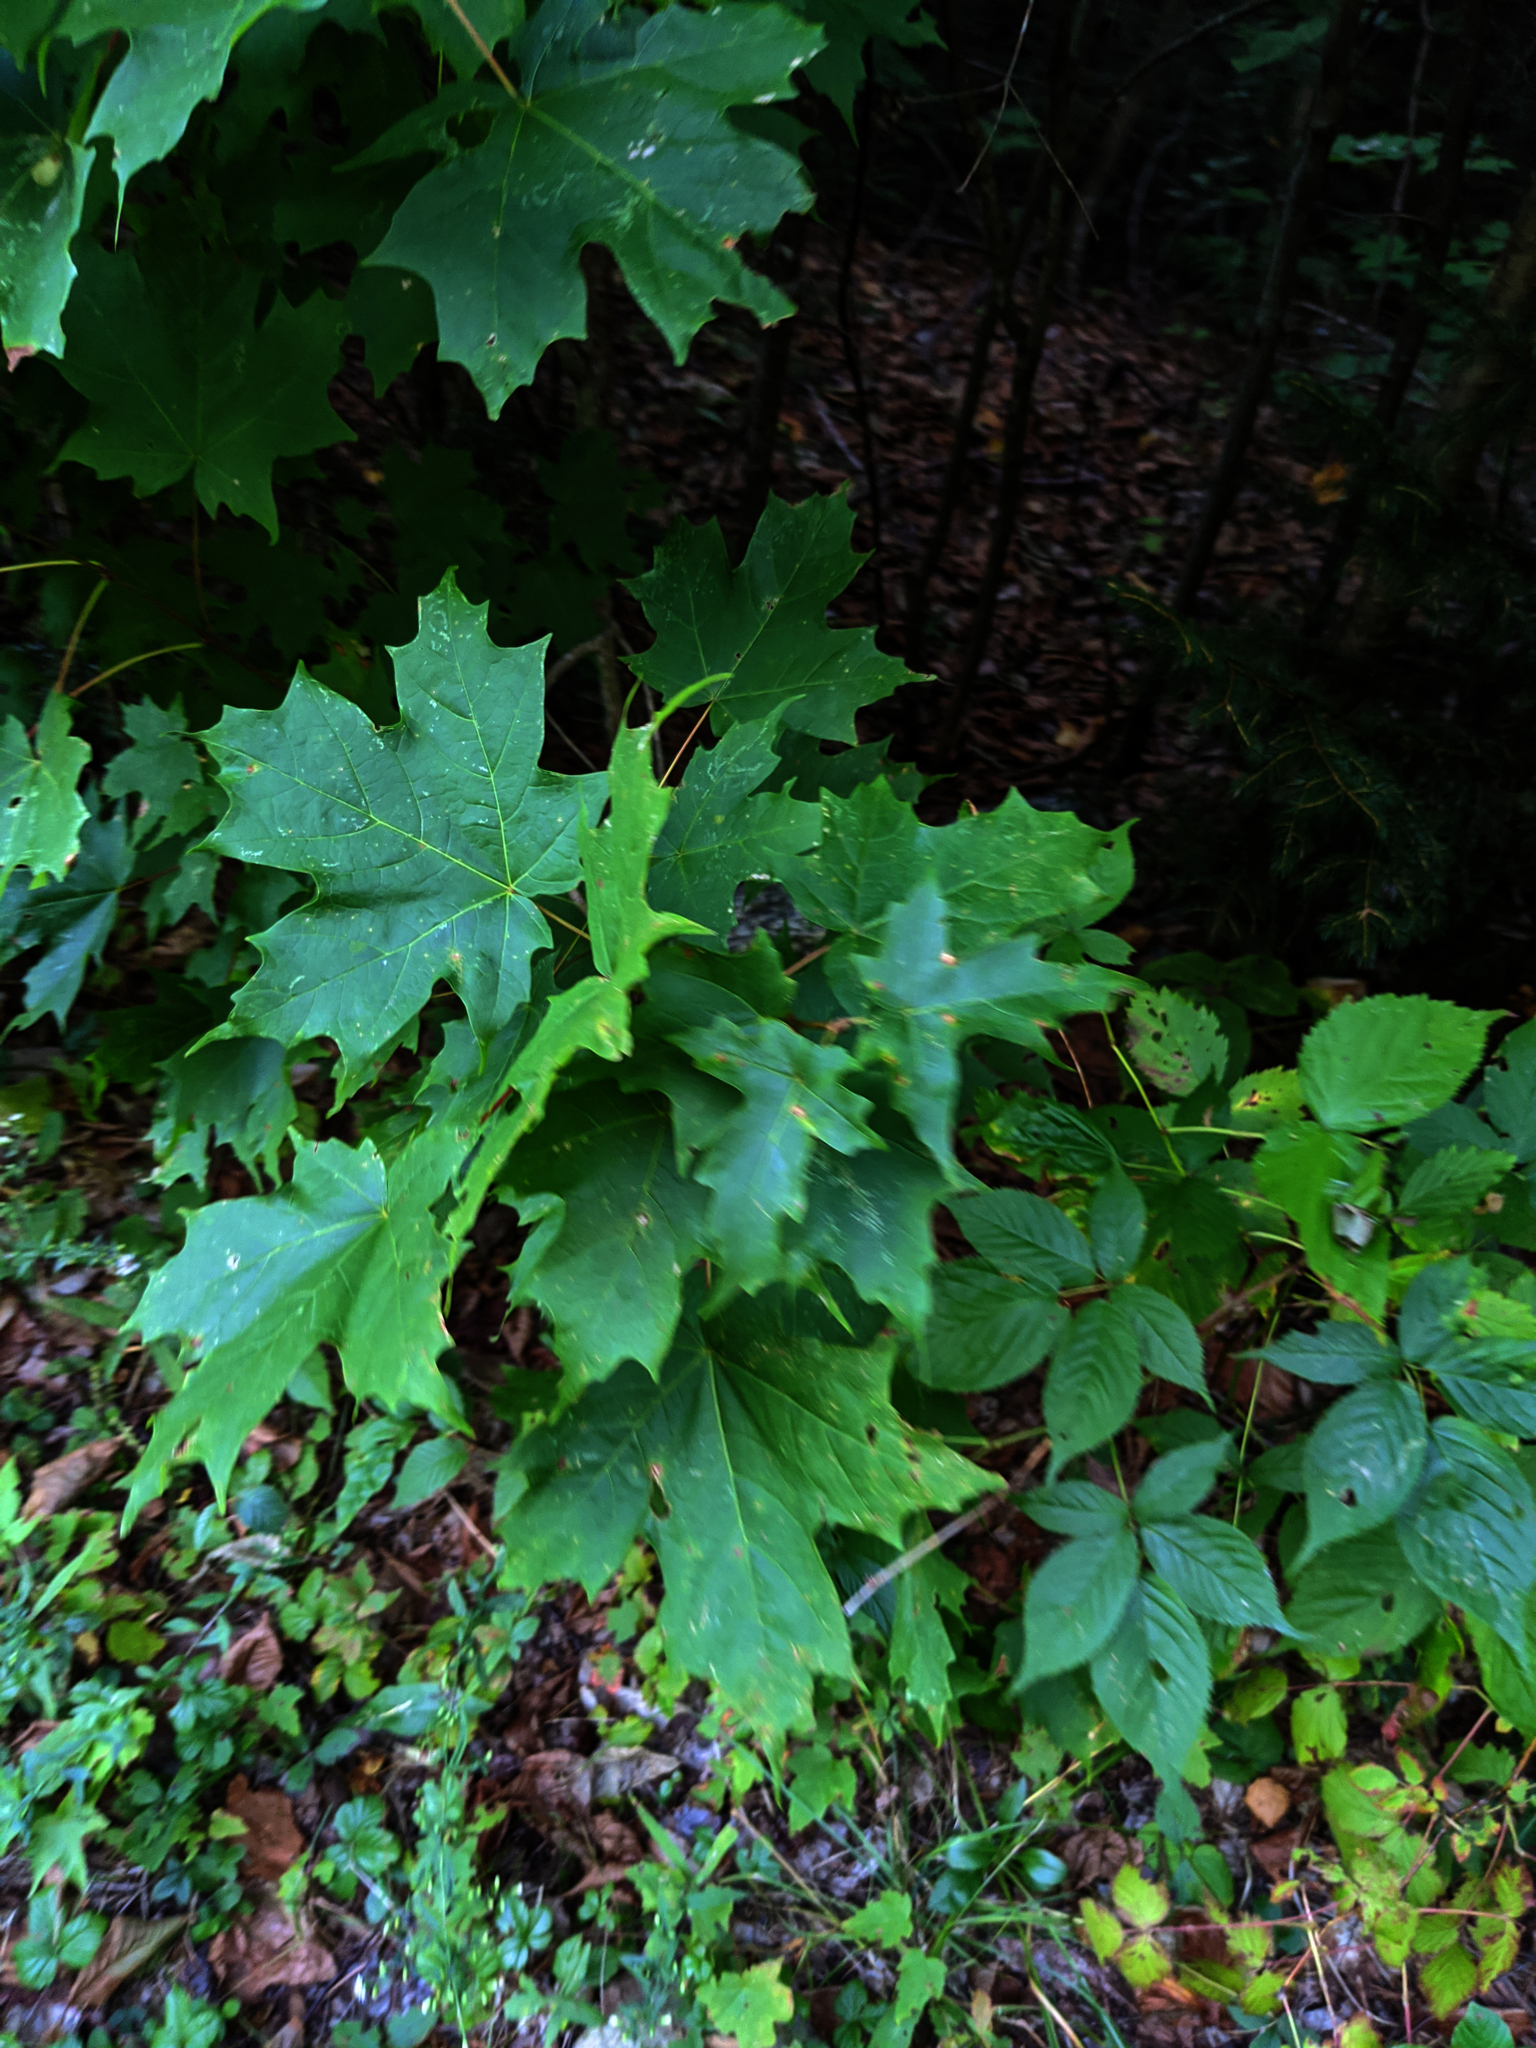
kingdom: Plantae
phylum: Tracheophyta
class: Magnoliopsida
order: Sapindales
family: Sapindaceae
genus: Acer
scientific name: Acer saccharum
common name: Sugar maple
